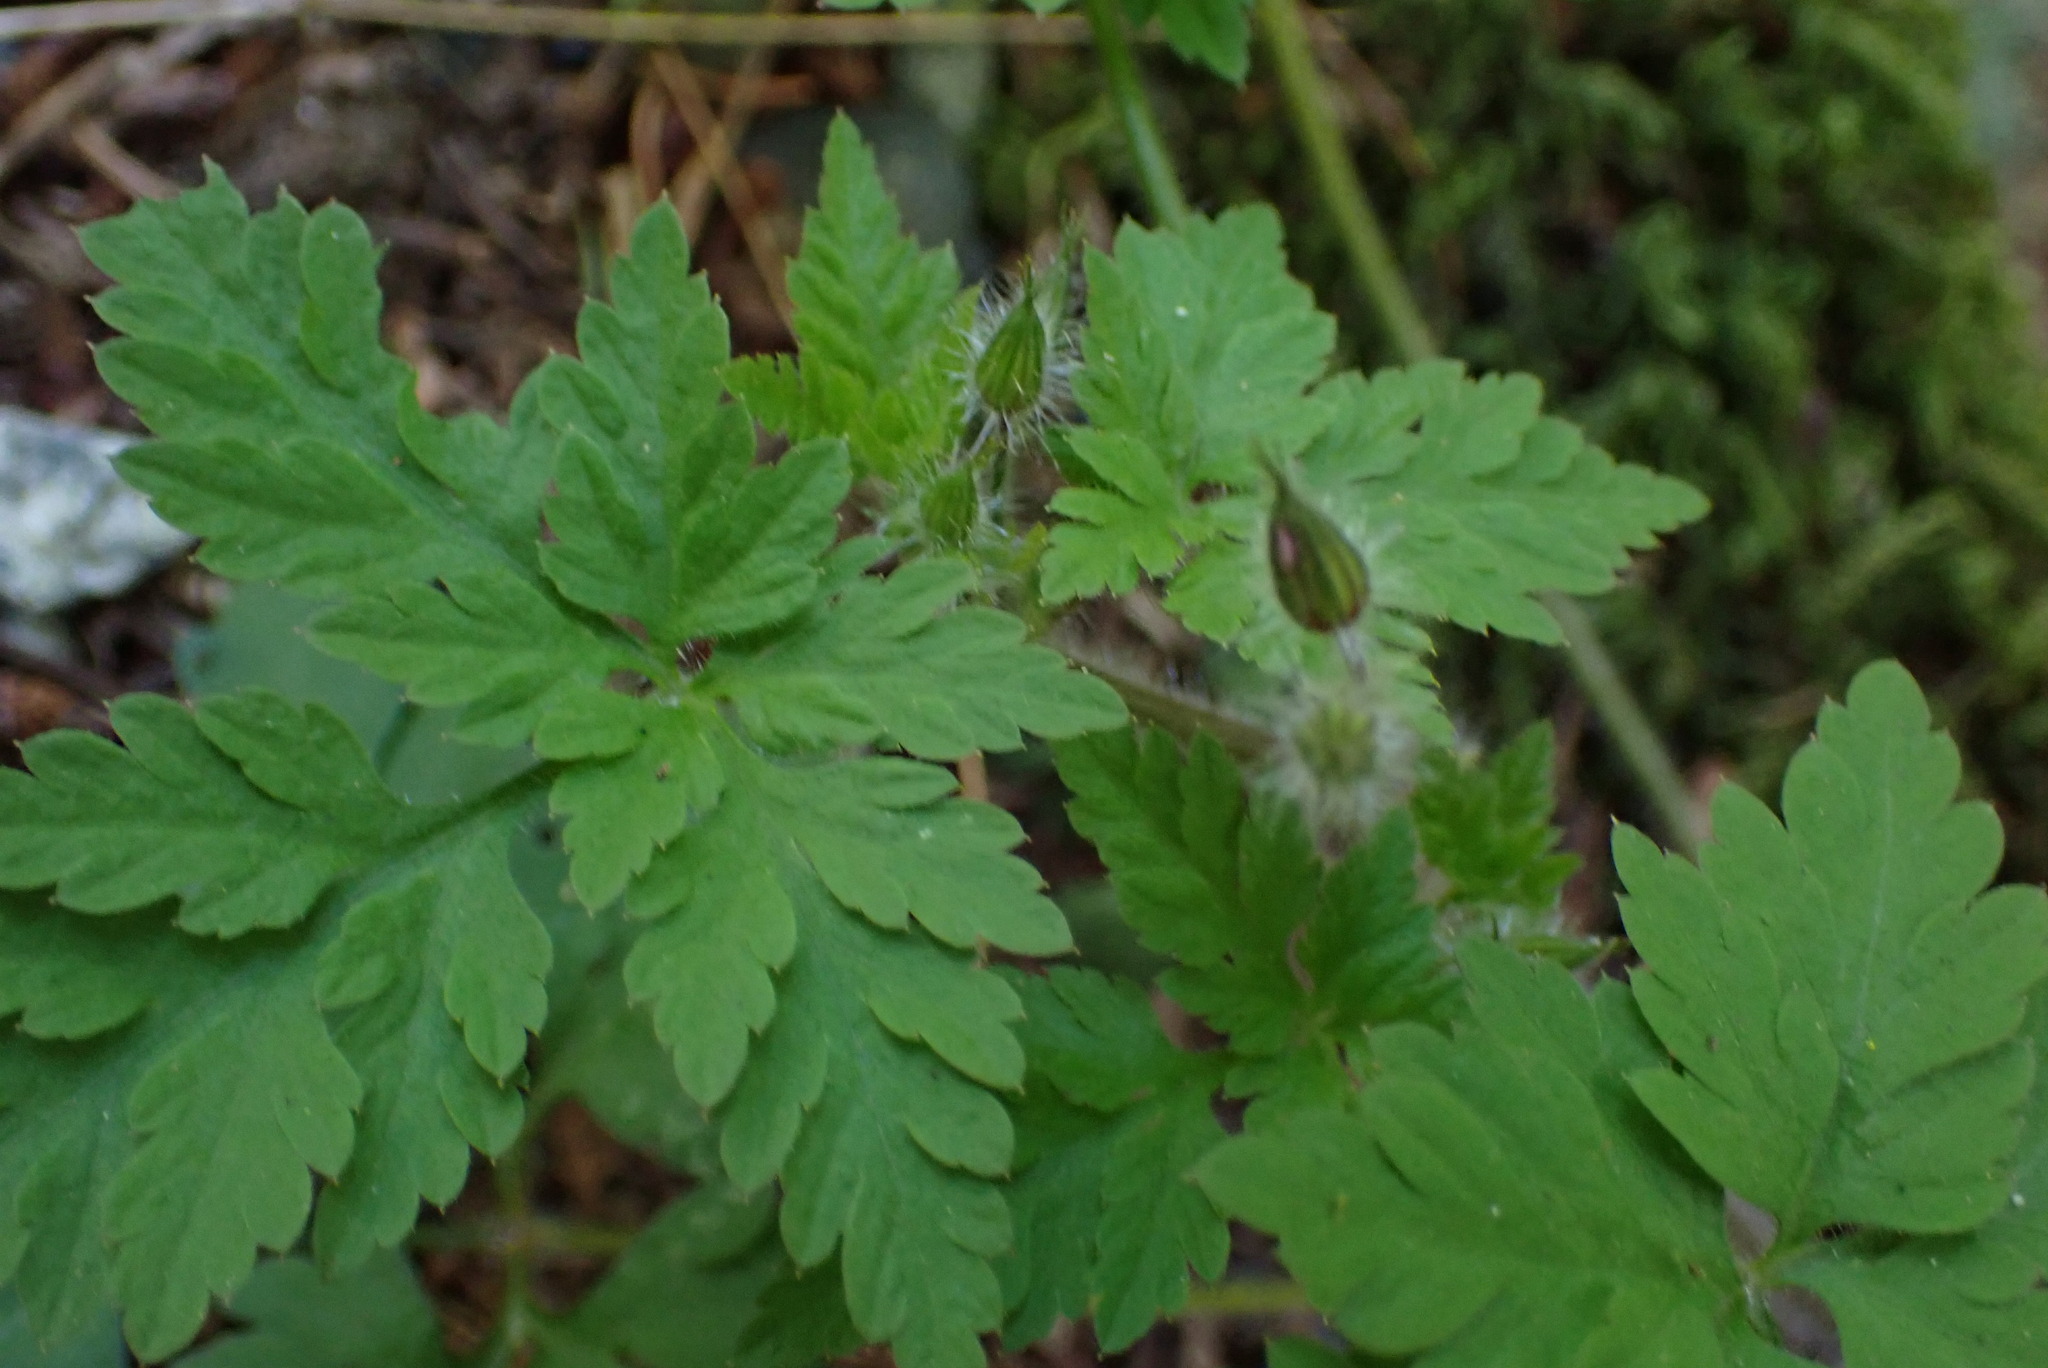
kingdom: Plantae
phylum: Tracheophyta
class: Magnoliopsida
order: Geraniales
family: Geraniaceae
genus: Geranium
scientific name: Geranium robertianum
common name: Herb-robert
